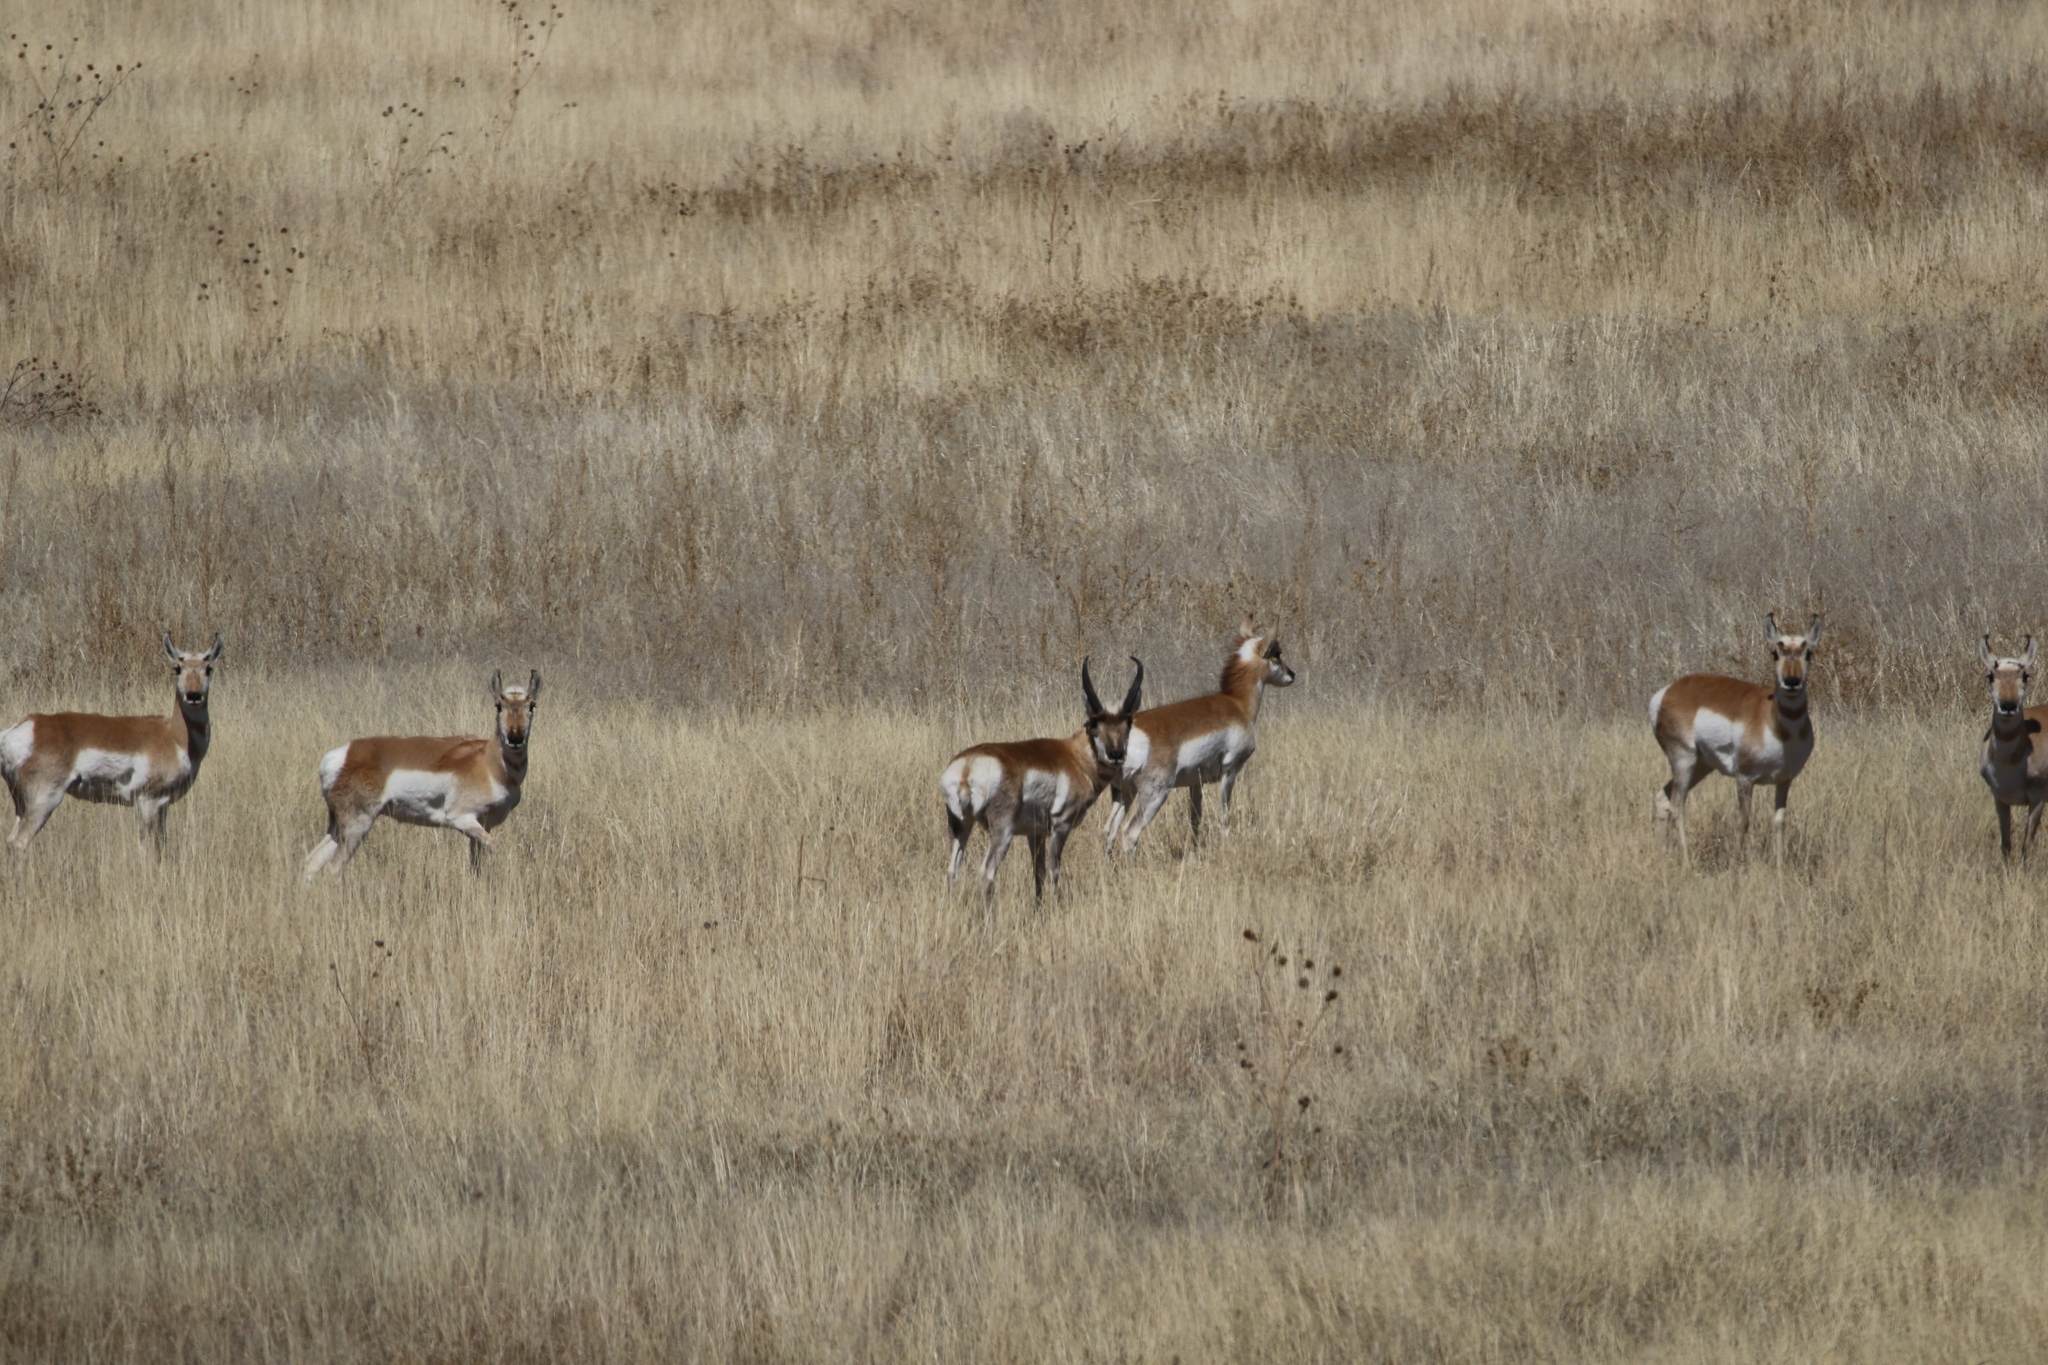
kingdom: Animalia
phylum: Chordata
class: Mammalia
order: Artiodactyla
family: Antilocapridae
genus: Antilocapra
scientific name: Antilocapra americana
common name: Pronghorn
